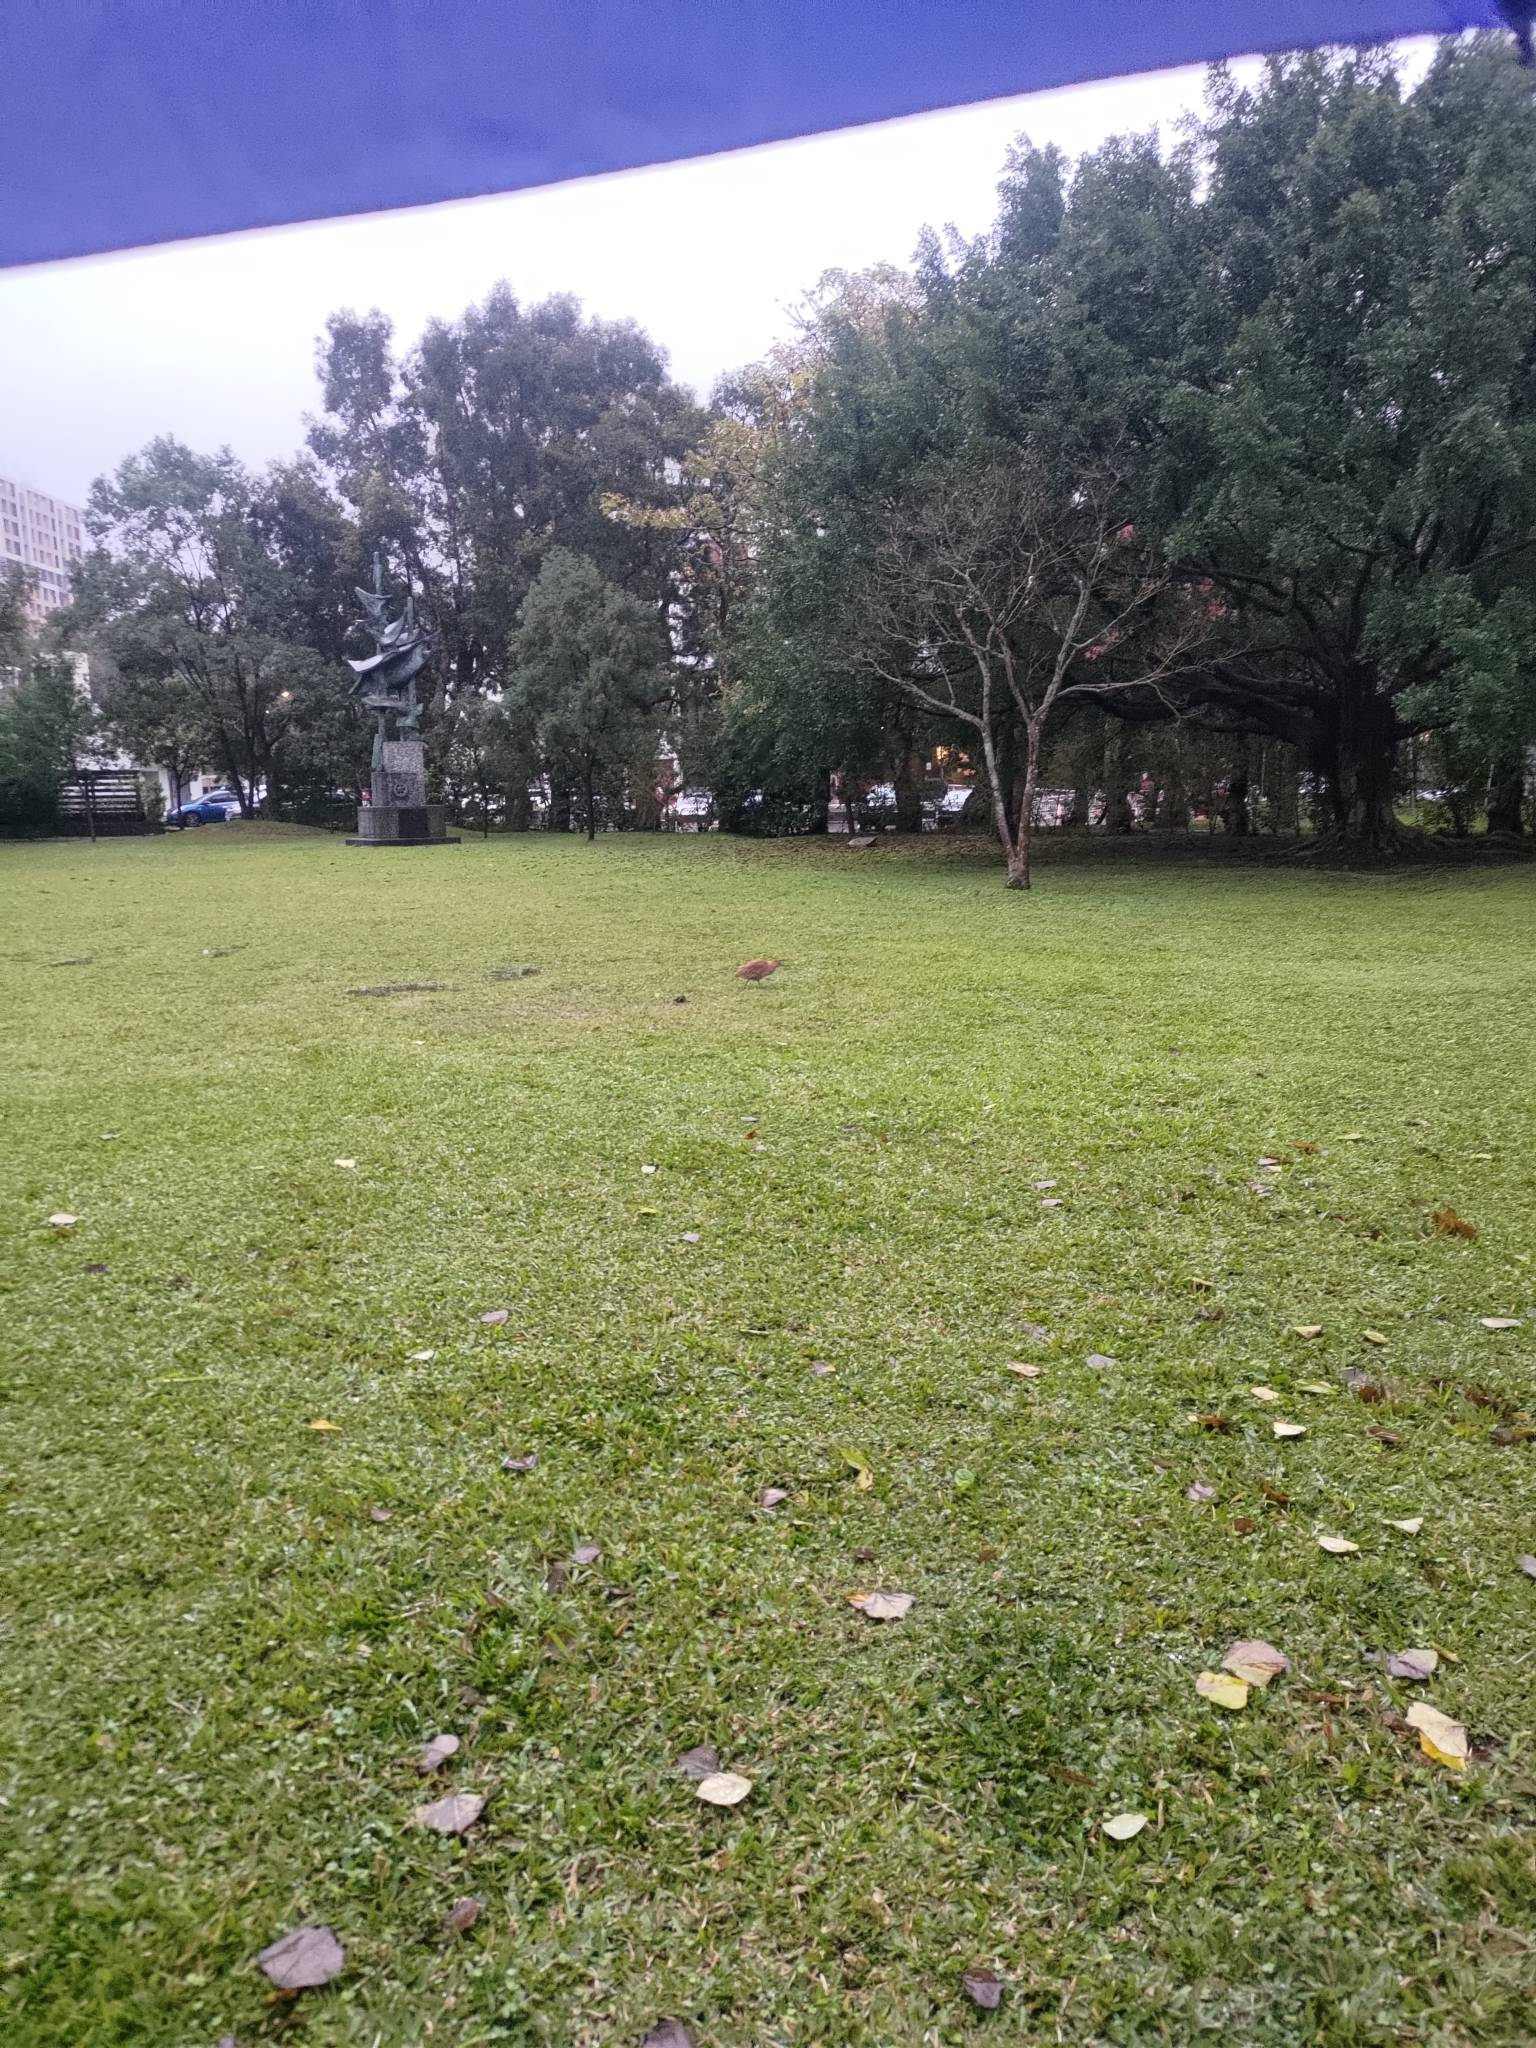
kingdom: Animalia
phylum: Chordata
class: Aves
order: Pelecaniformes
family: Ardeidae
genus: Gorsachius
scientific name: Gorsachius melanolophus
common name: Malayan night heron
